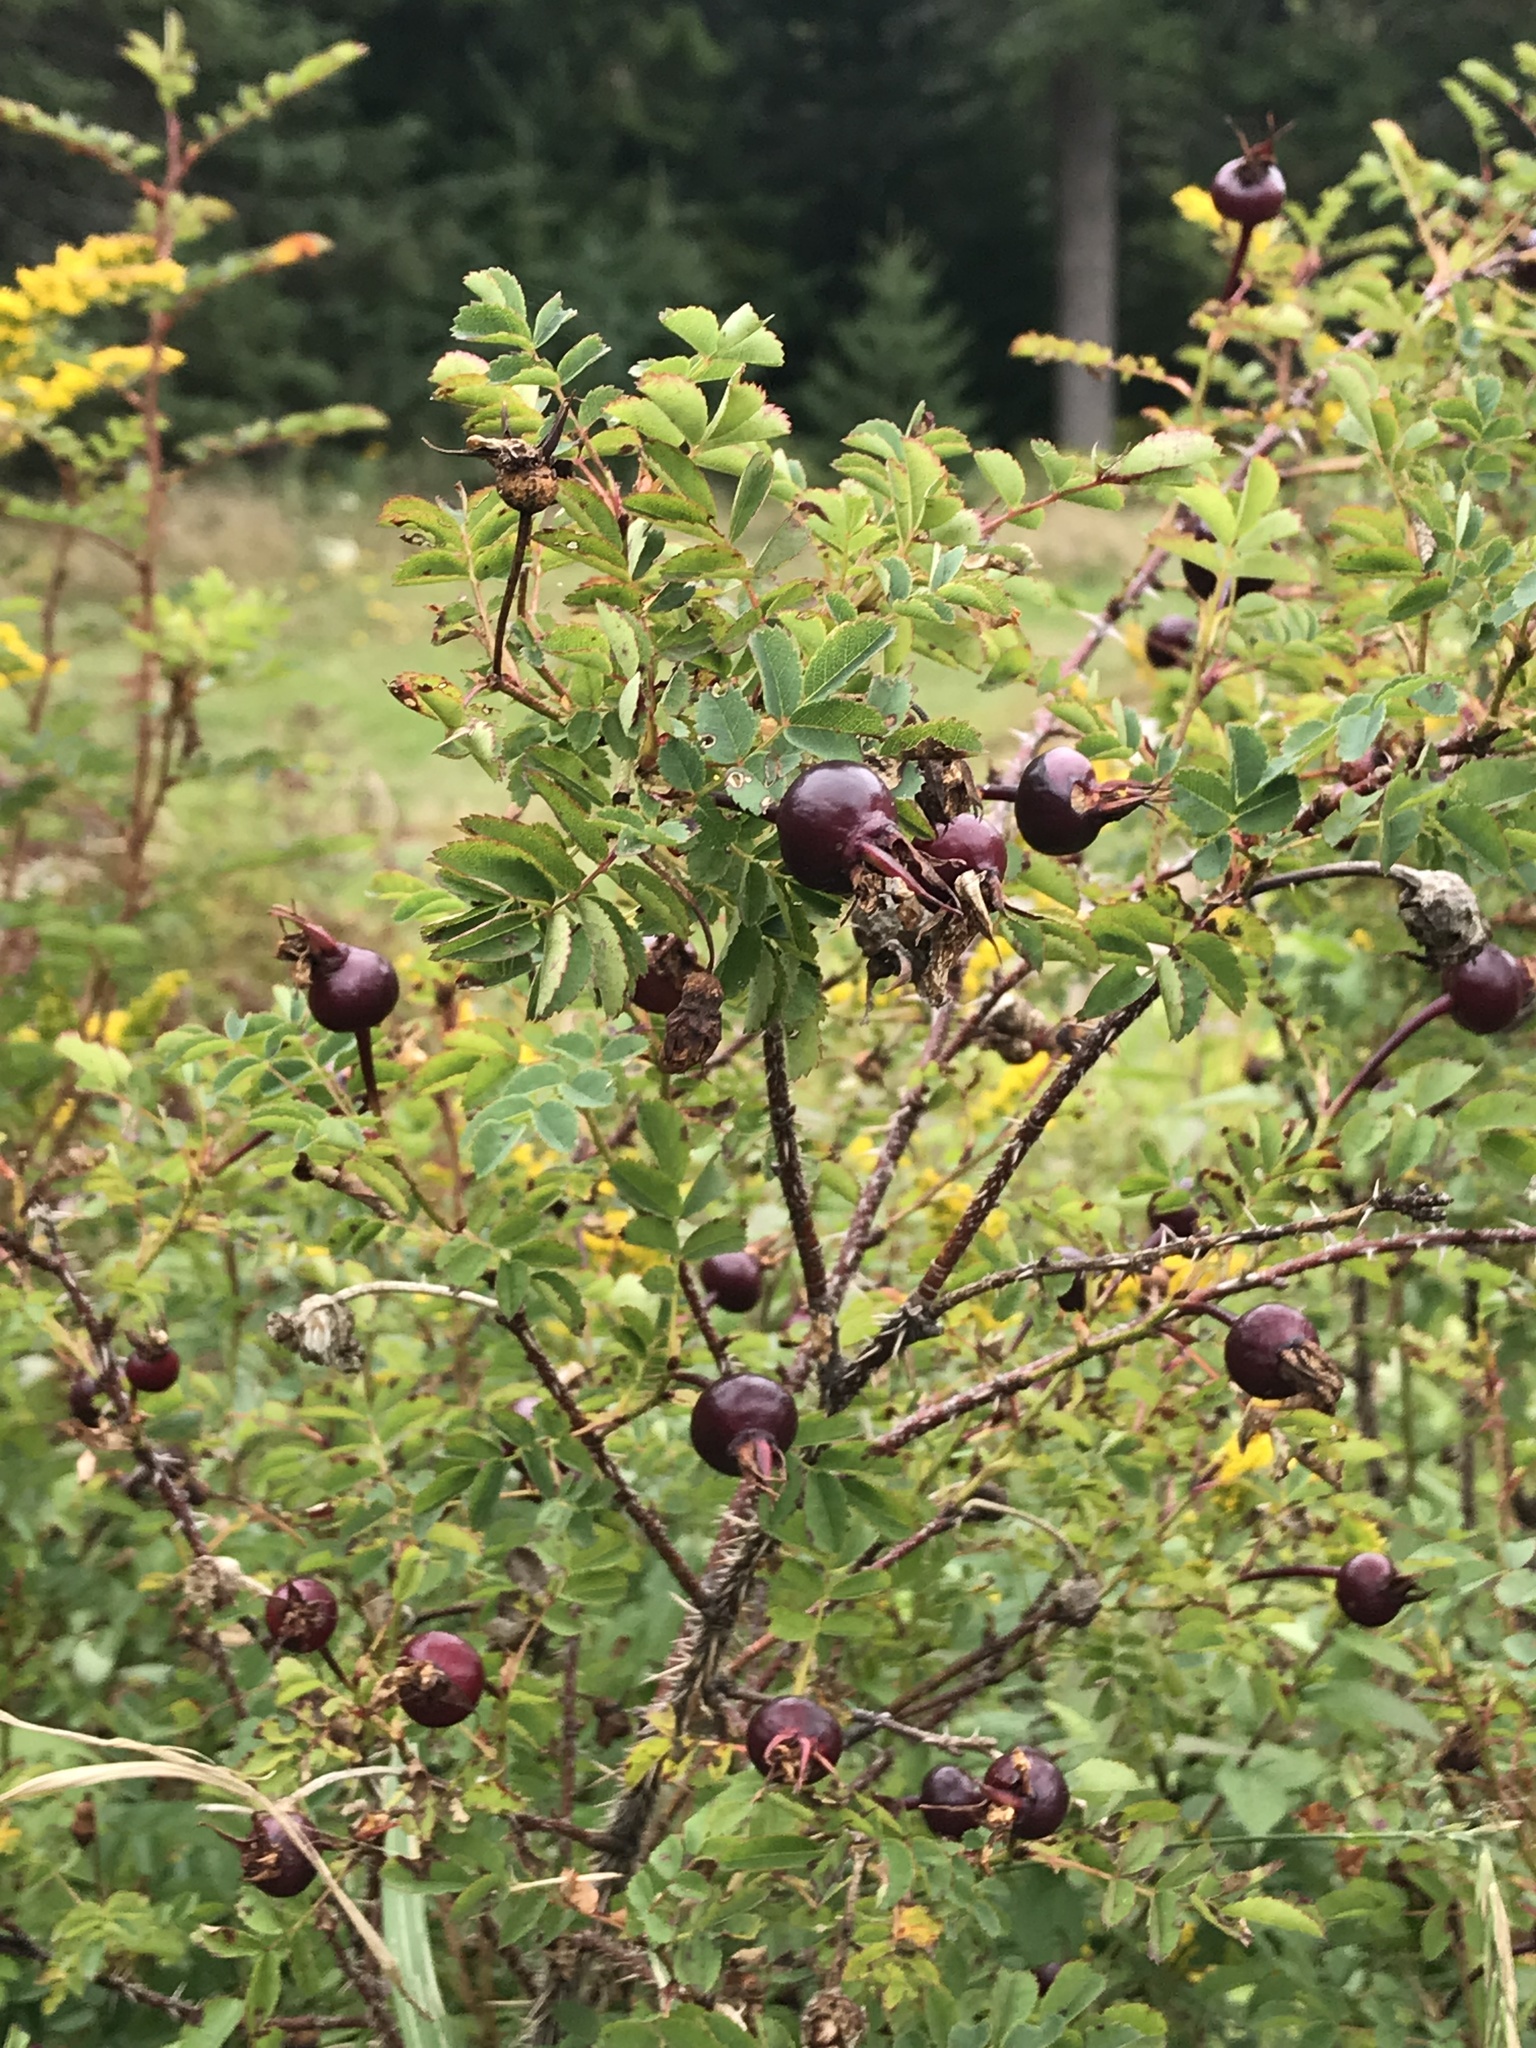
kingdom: Plantae
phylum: Tracheophyta
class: Magnoliopsida
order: Rosales
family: Rosaceae
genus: Rosa
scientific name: Rosa
